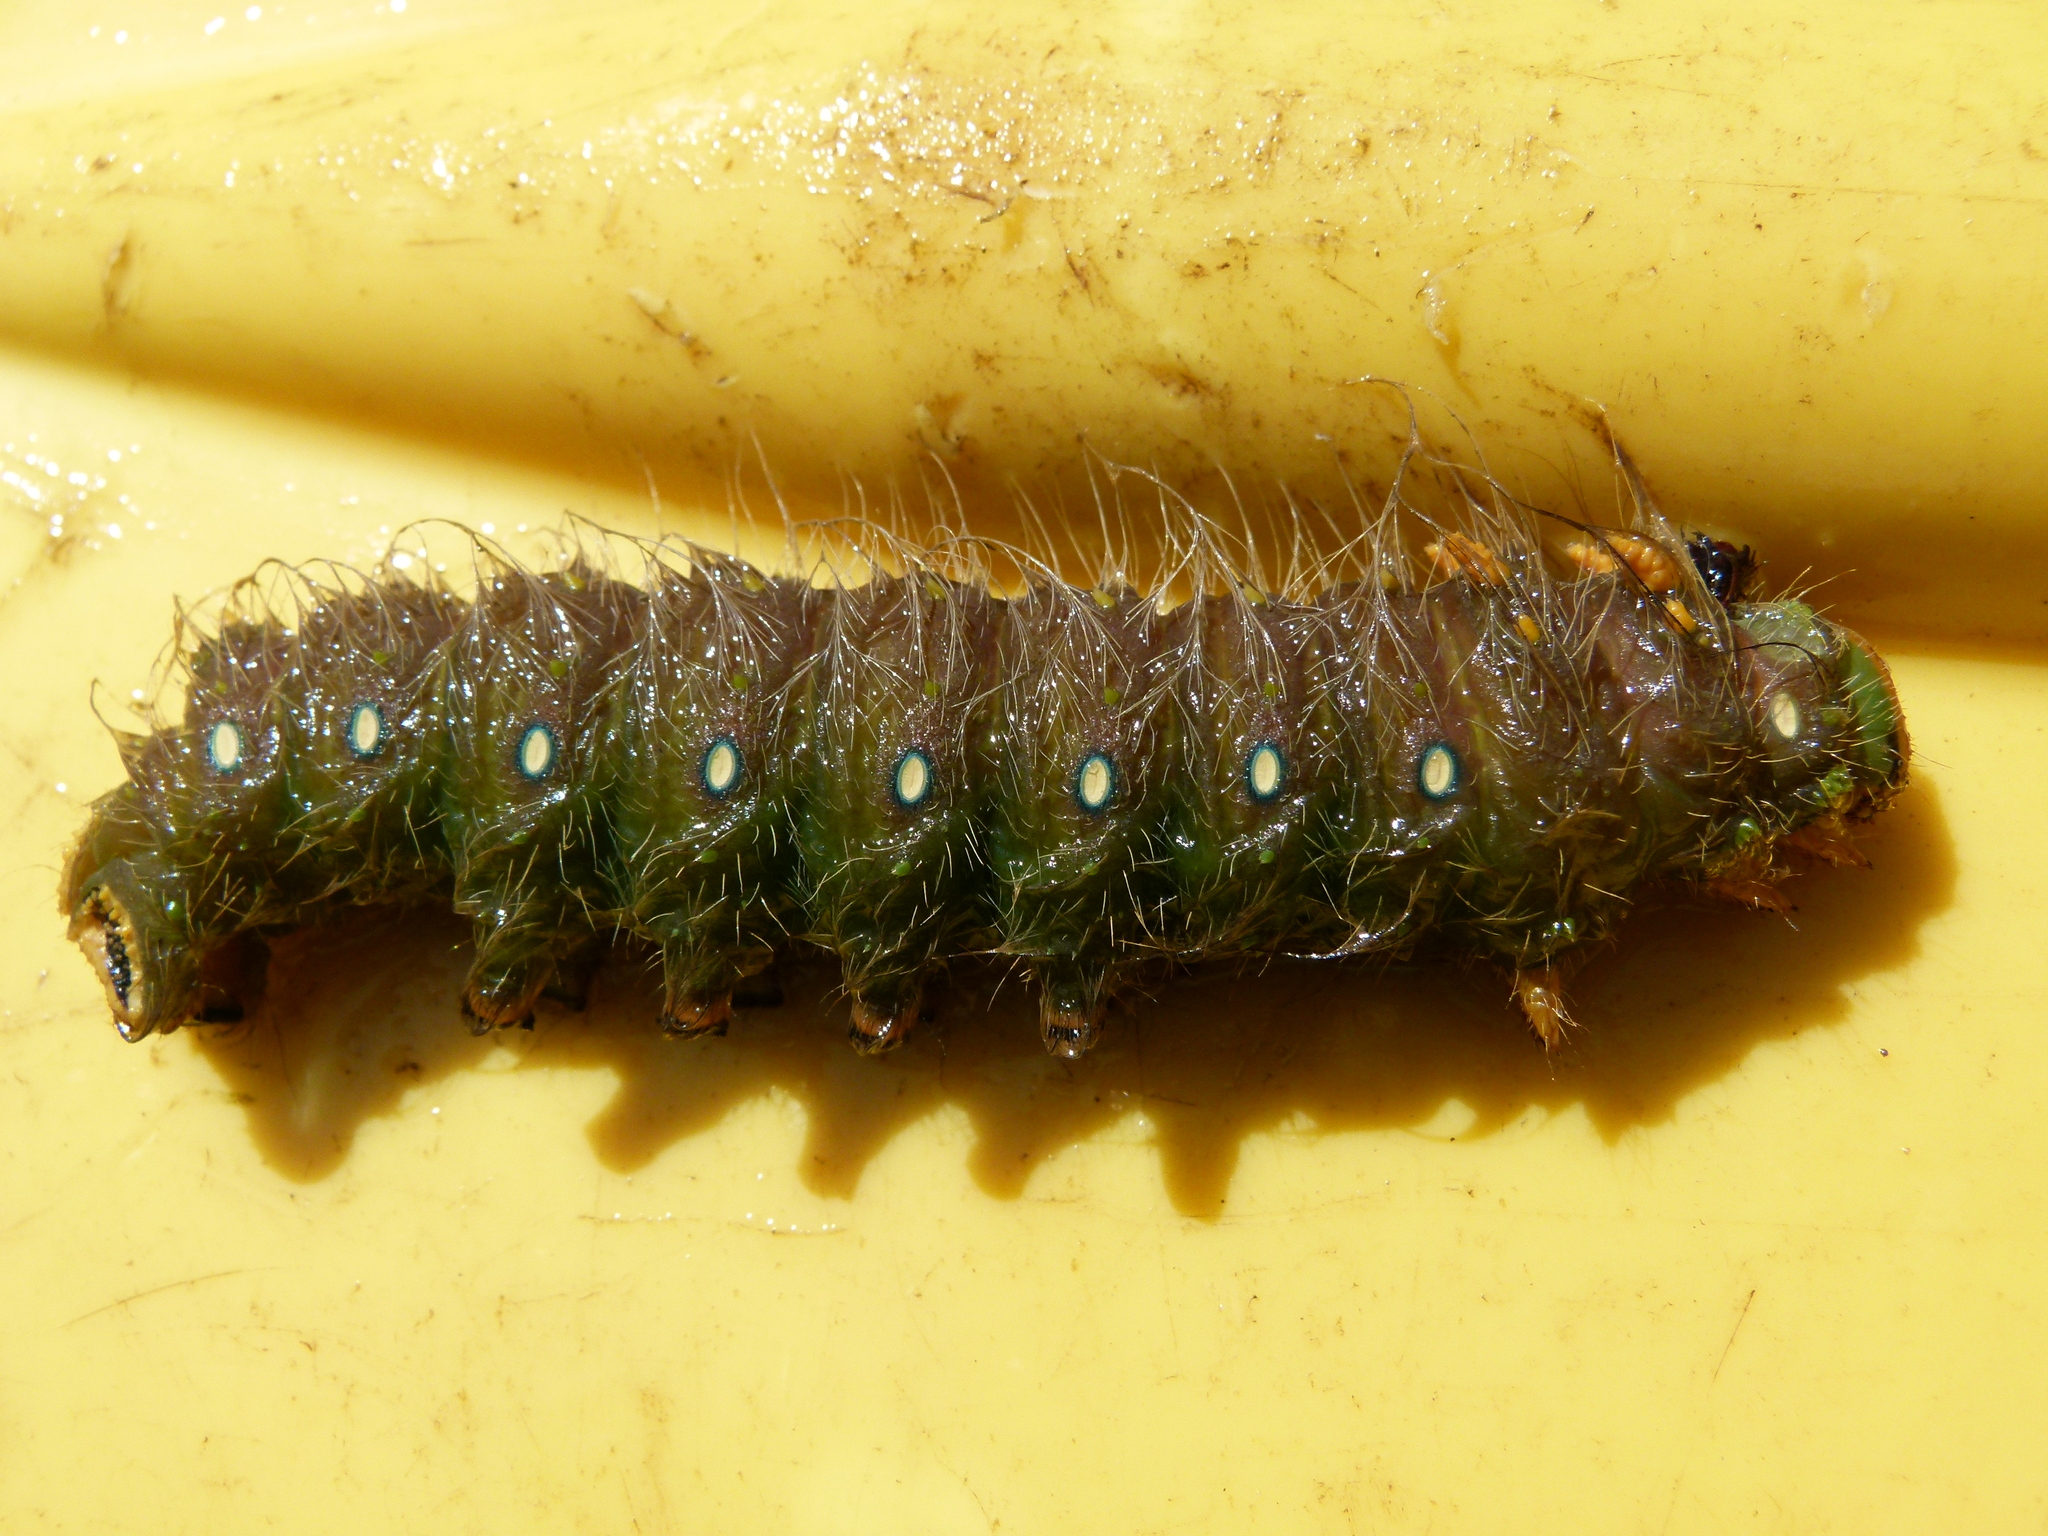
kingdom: Animalia
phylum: Arthropoda
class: Insecta
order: Lepidoptera
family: Saturniidae
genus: Eacles
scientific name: Eacles imperialis
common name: Imperial moth
